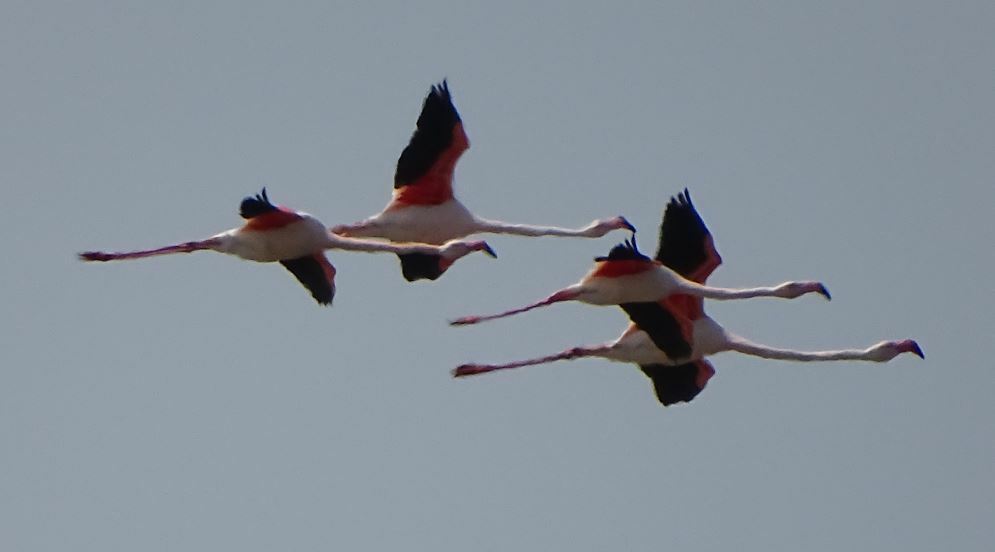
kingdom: Animalia
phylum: Chordata
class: Aves
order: Phoenicopteriformes
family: Phoenicopteridae
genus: Phoenicopterus
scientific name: Phoenicopterus roseus
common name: Greater flamingo
